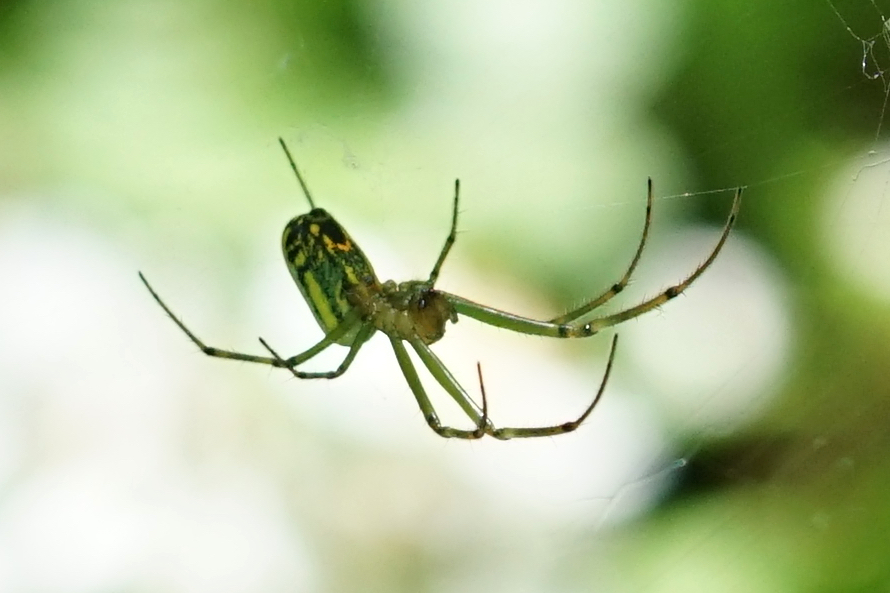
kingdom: Animalia
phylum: Arthropoda
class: Arachnida
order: Araneae
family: Tetragnathidae
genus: Leucauge
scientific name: Leucauge venusta
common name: Longjawed orb weavers
